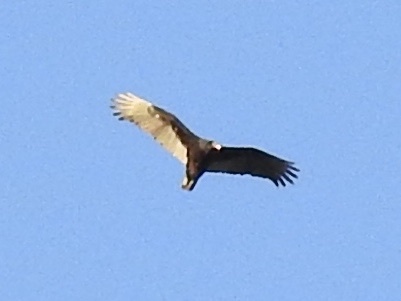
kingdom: Animalia
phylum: Chordata
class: Aves
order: Accipitriformes
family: Cathartidae
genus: Cathartes
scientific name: Cathartes aura
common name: Turkey vulture
